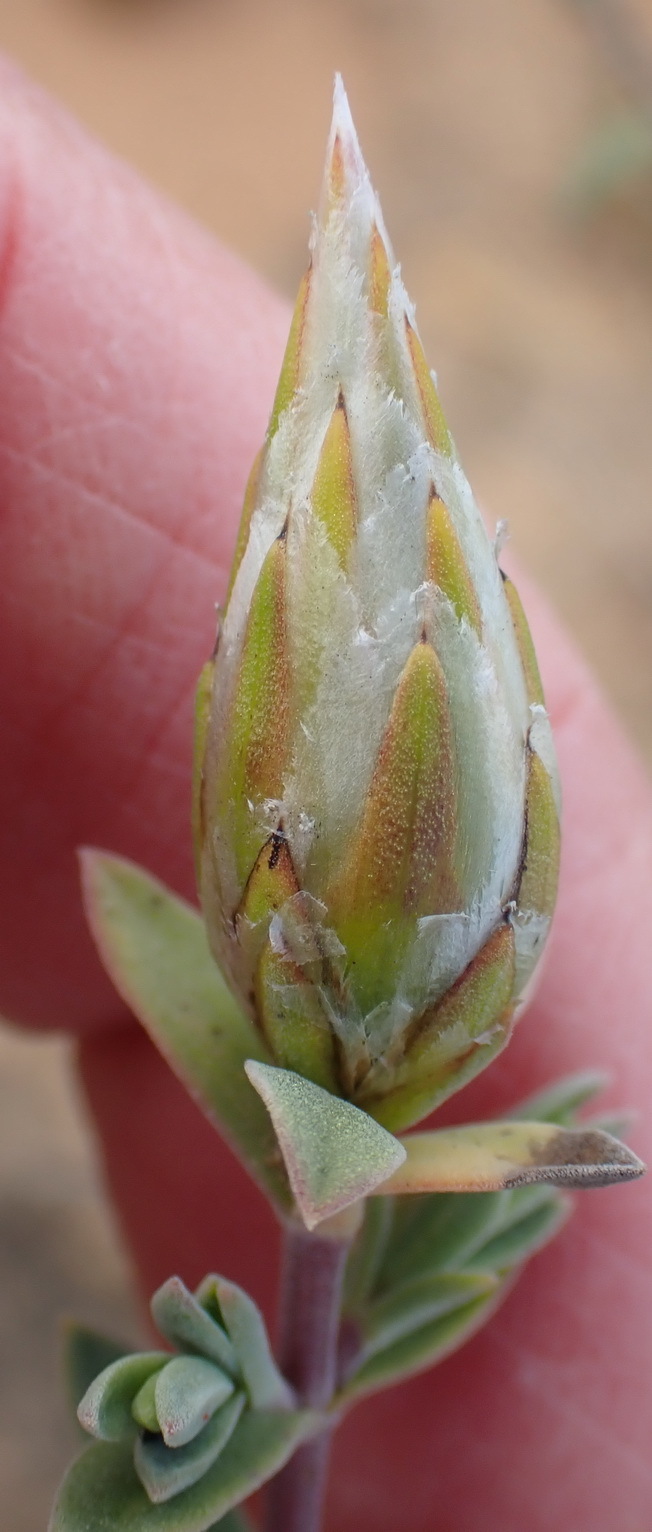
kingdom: Plantae
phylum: Tracheophyta
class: Magnoliopsida
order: Asterales
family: Asteraceae
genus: Pteronia
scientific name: Pteronia membranacea
